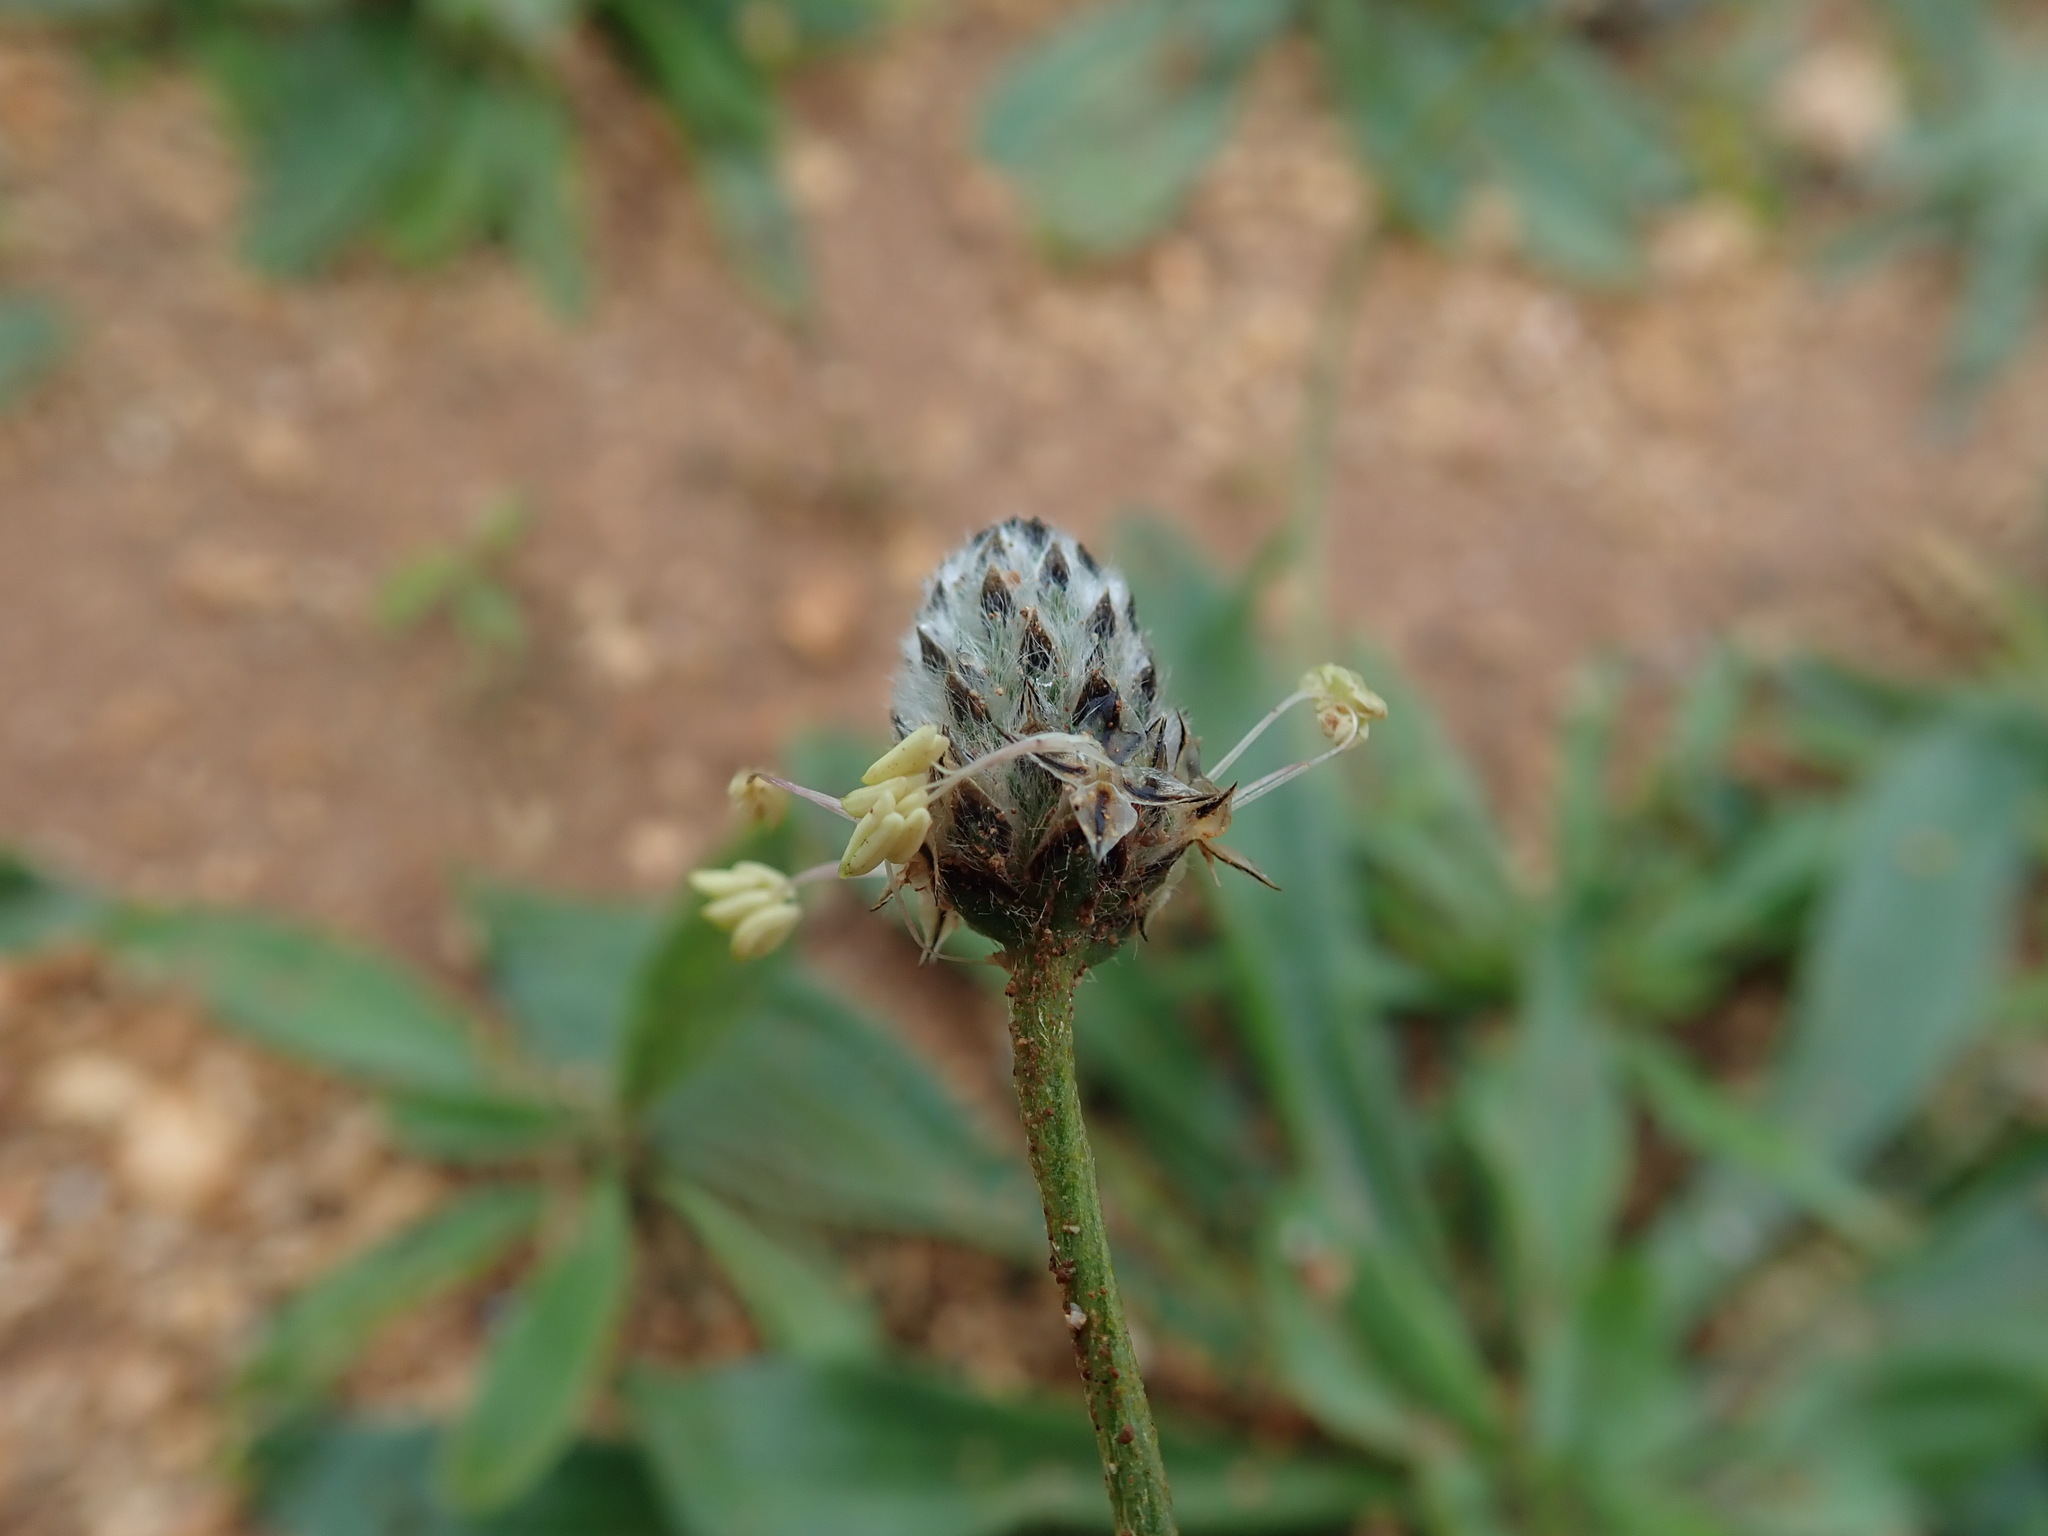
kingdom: Plantae
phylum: Tracheophyta
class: Magnoliopsida
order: Lamiales
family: Plantaginaceae
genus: Plantago
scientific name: Plantago lagopus
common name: Hare-foot plantain
